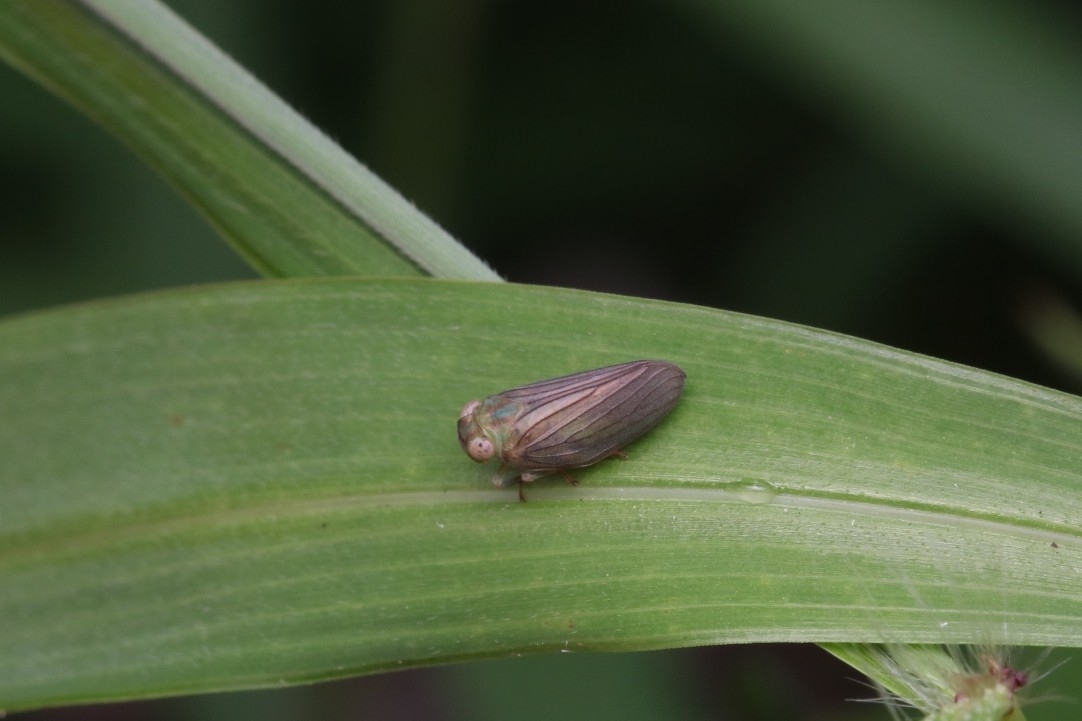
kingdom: Animalia
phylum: Arthropoda
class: Insecta
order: Hemiptera
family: Issidae
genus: Aplos
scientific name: Aplos simplex
